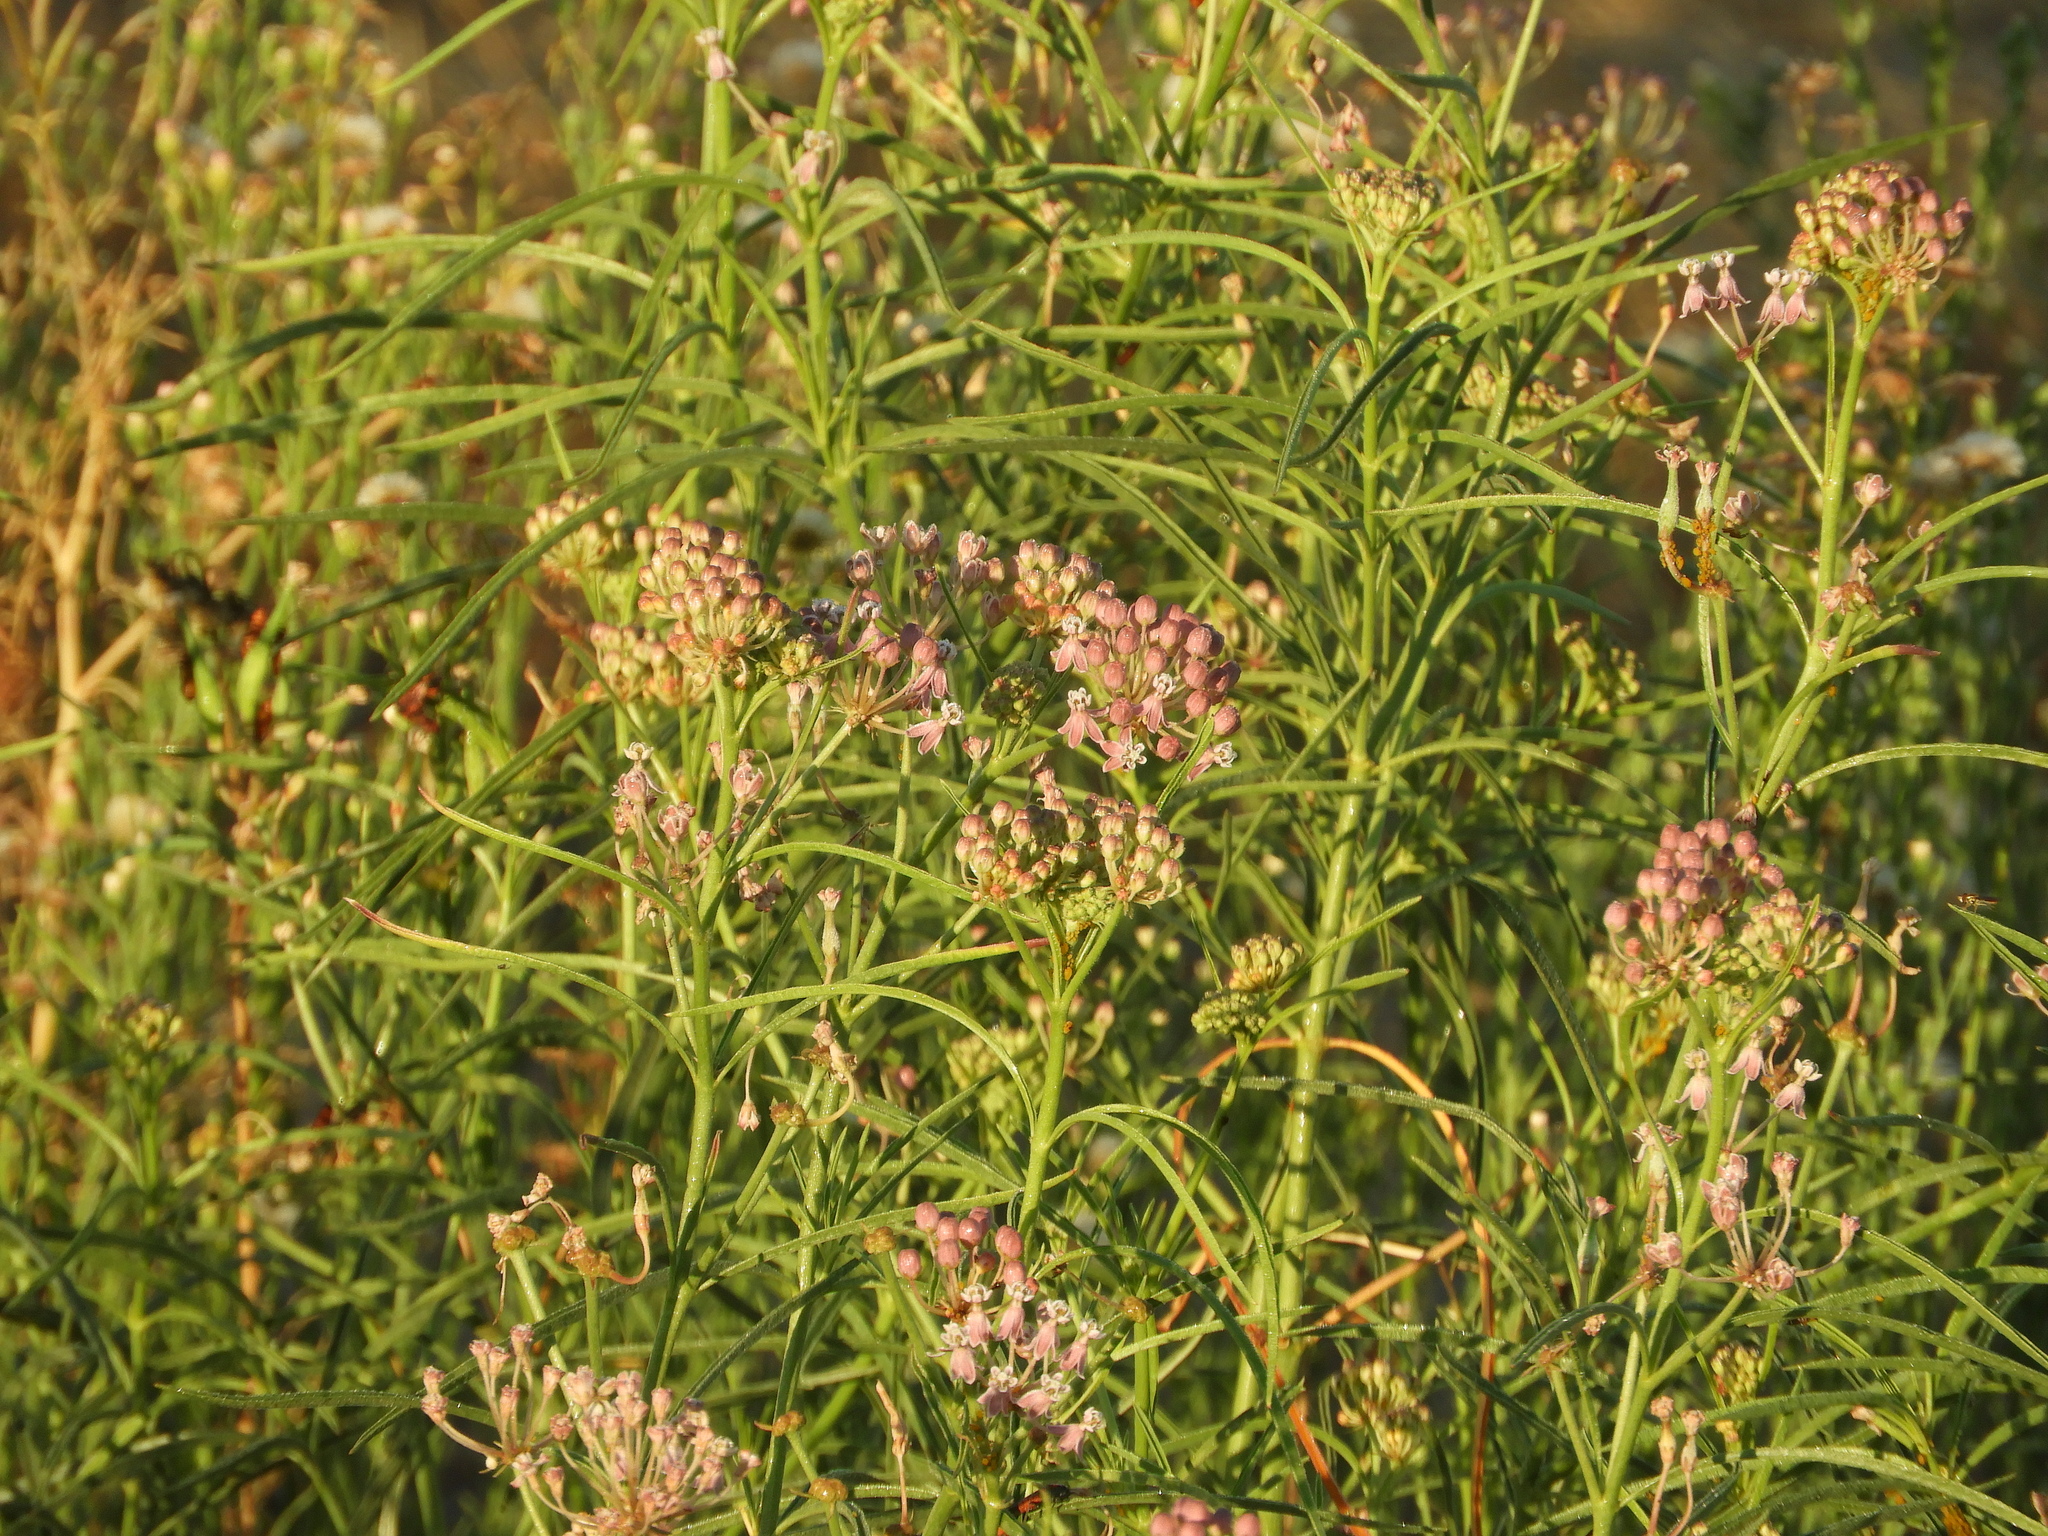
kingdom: Plantae
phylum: Tracheophyta
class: Magnoliopsida
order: Gentianales
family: Apocynaceae
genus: Asclepias
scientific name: Asclepias fascicularis
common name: Mexican milkweed
